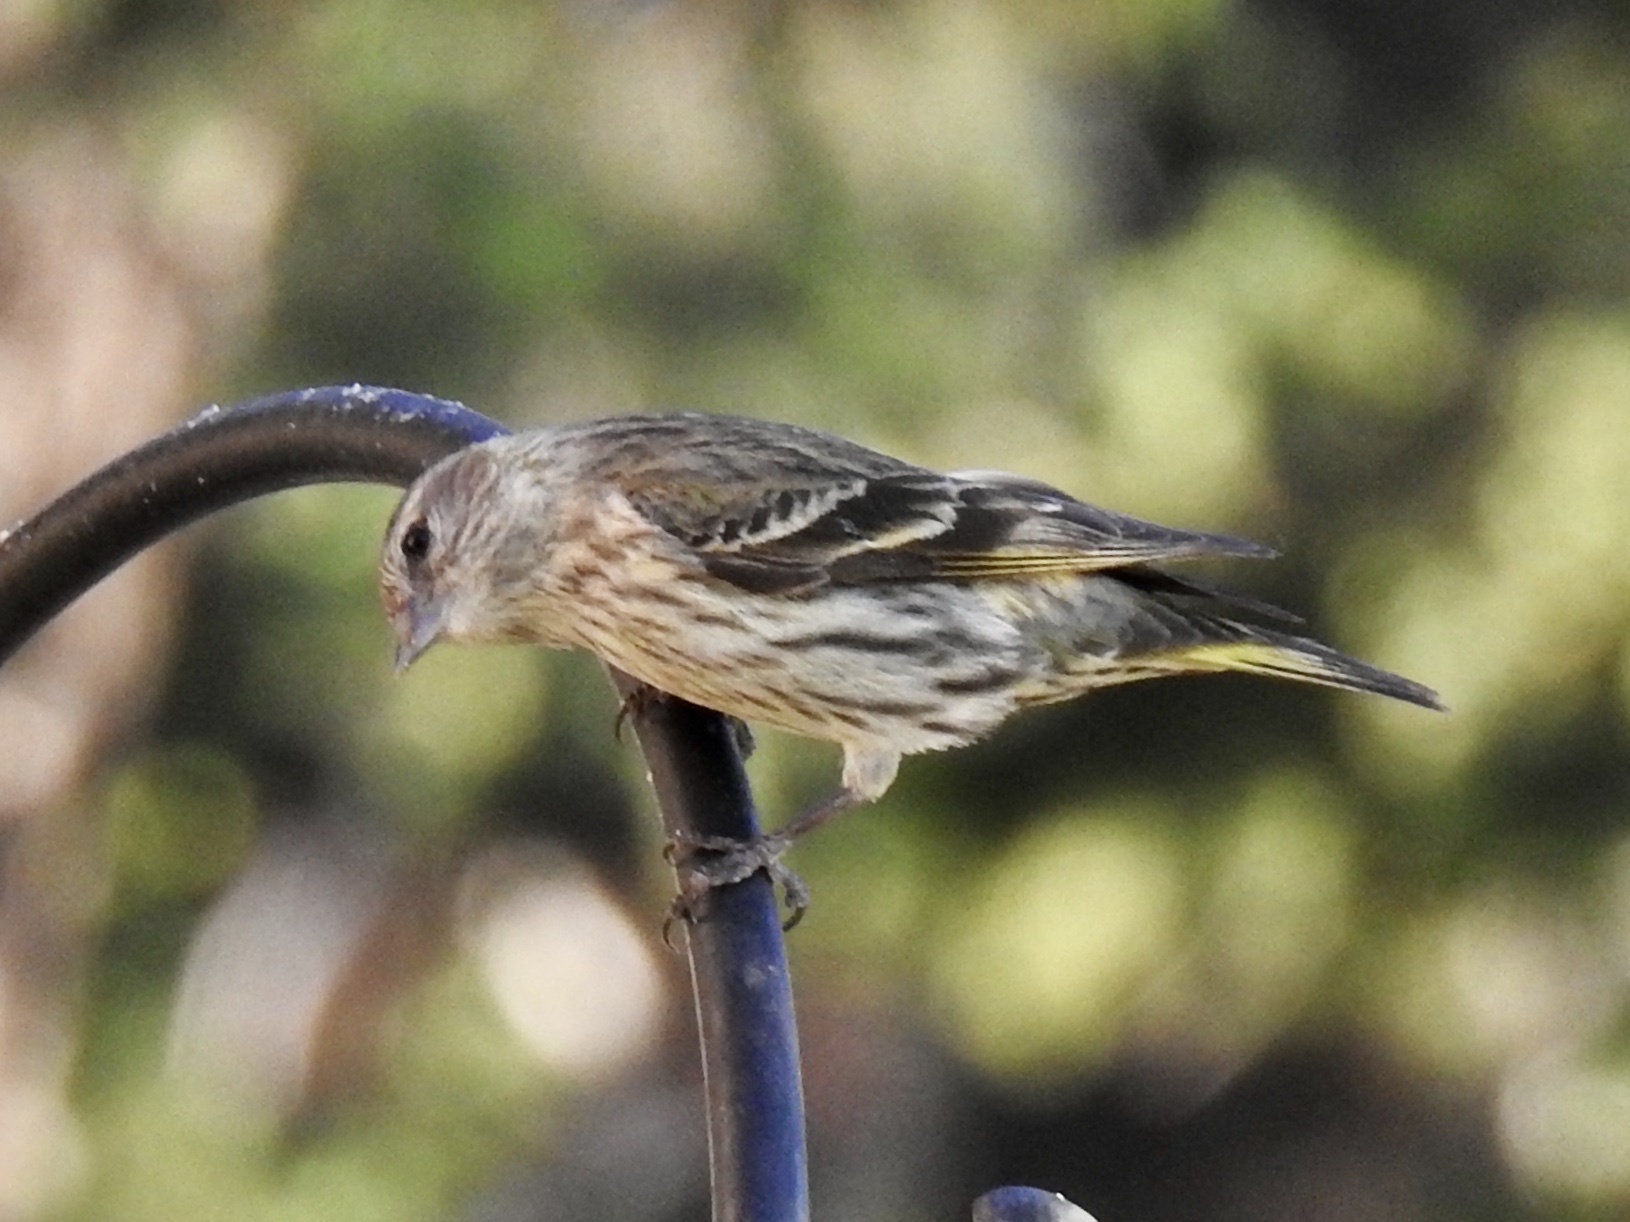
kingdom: Animalia
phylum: Chordata
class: Aves
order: Passeriformes
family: Fringillidae
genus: Spinus
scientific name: Spinus pinus
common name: Pine siskin
